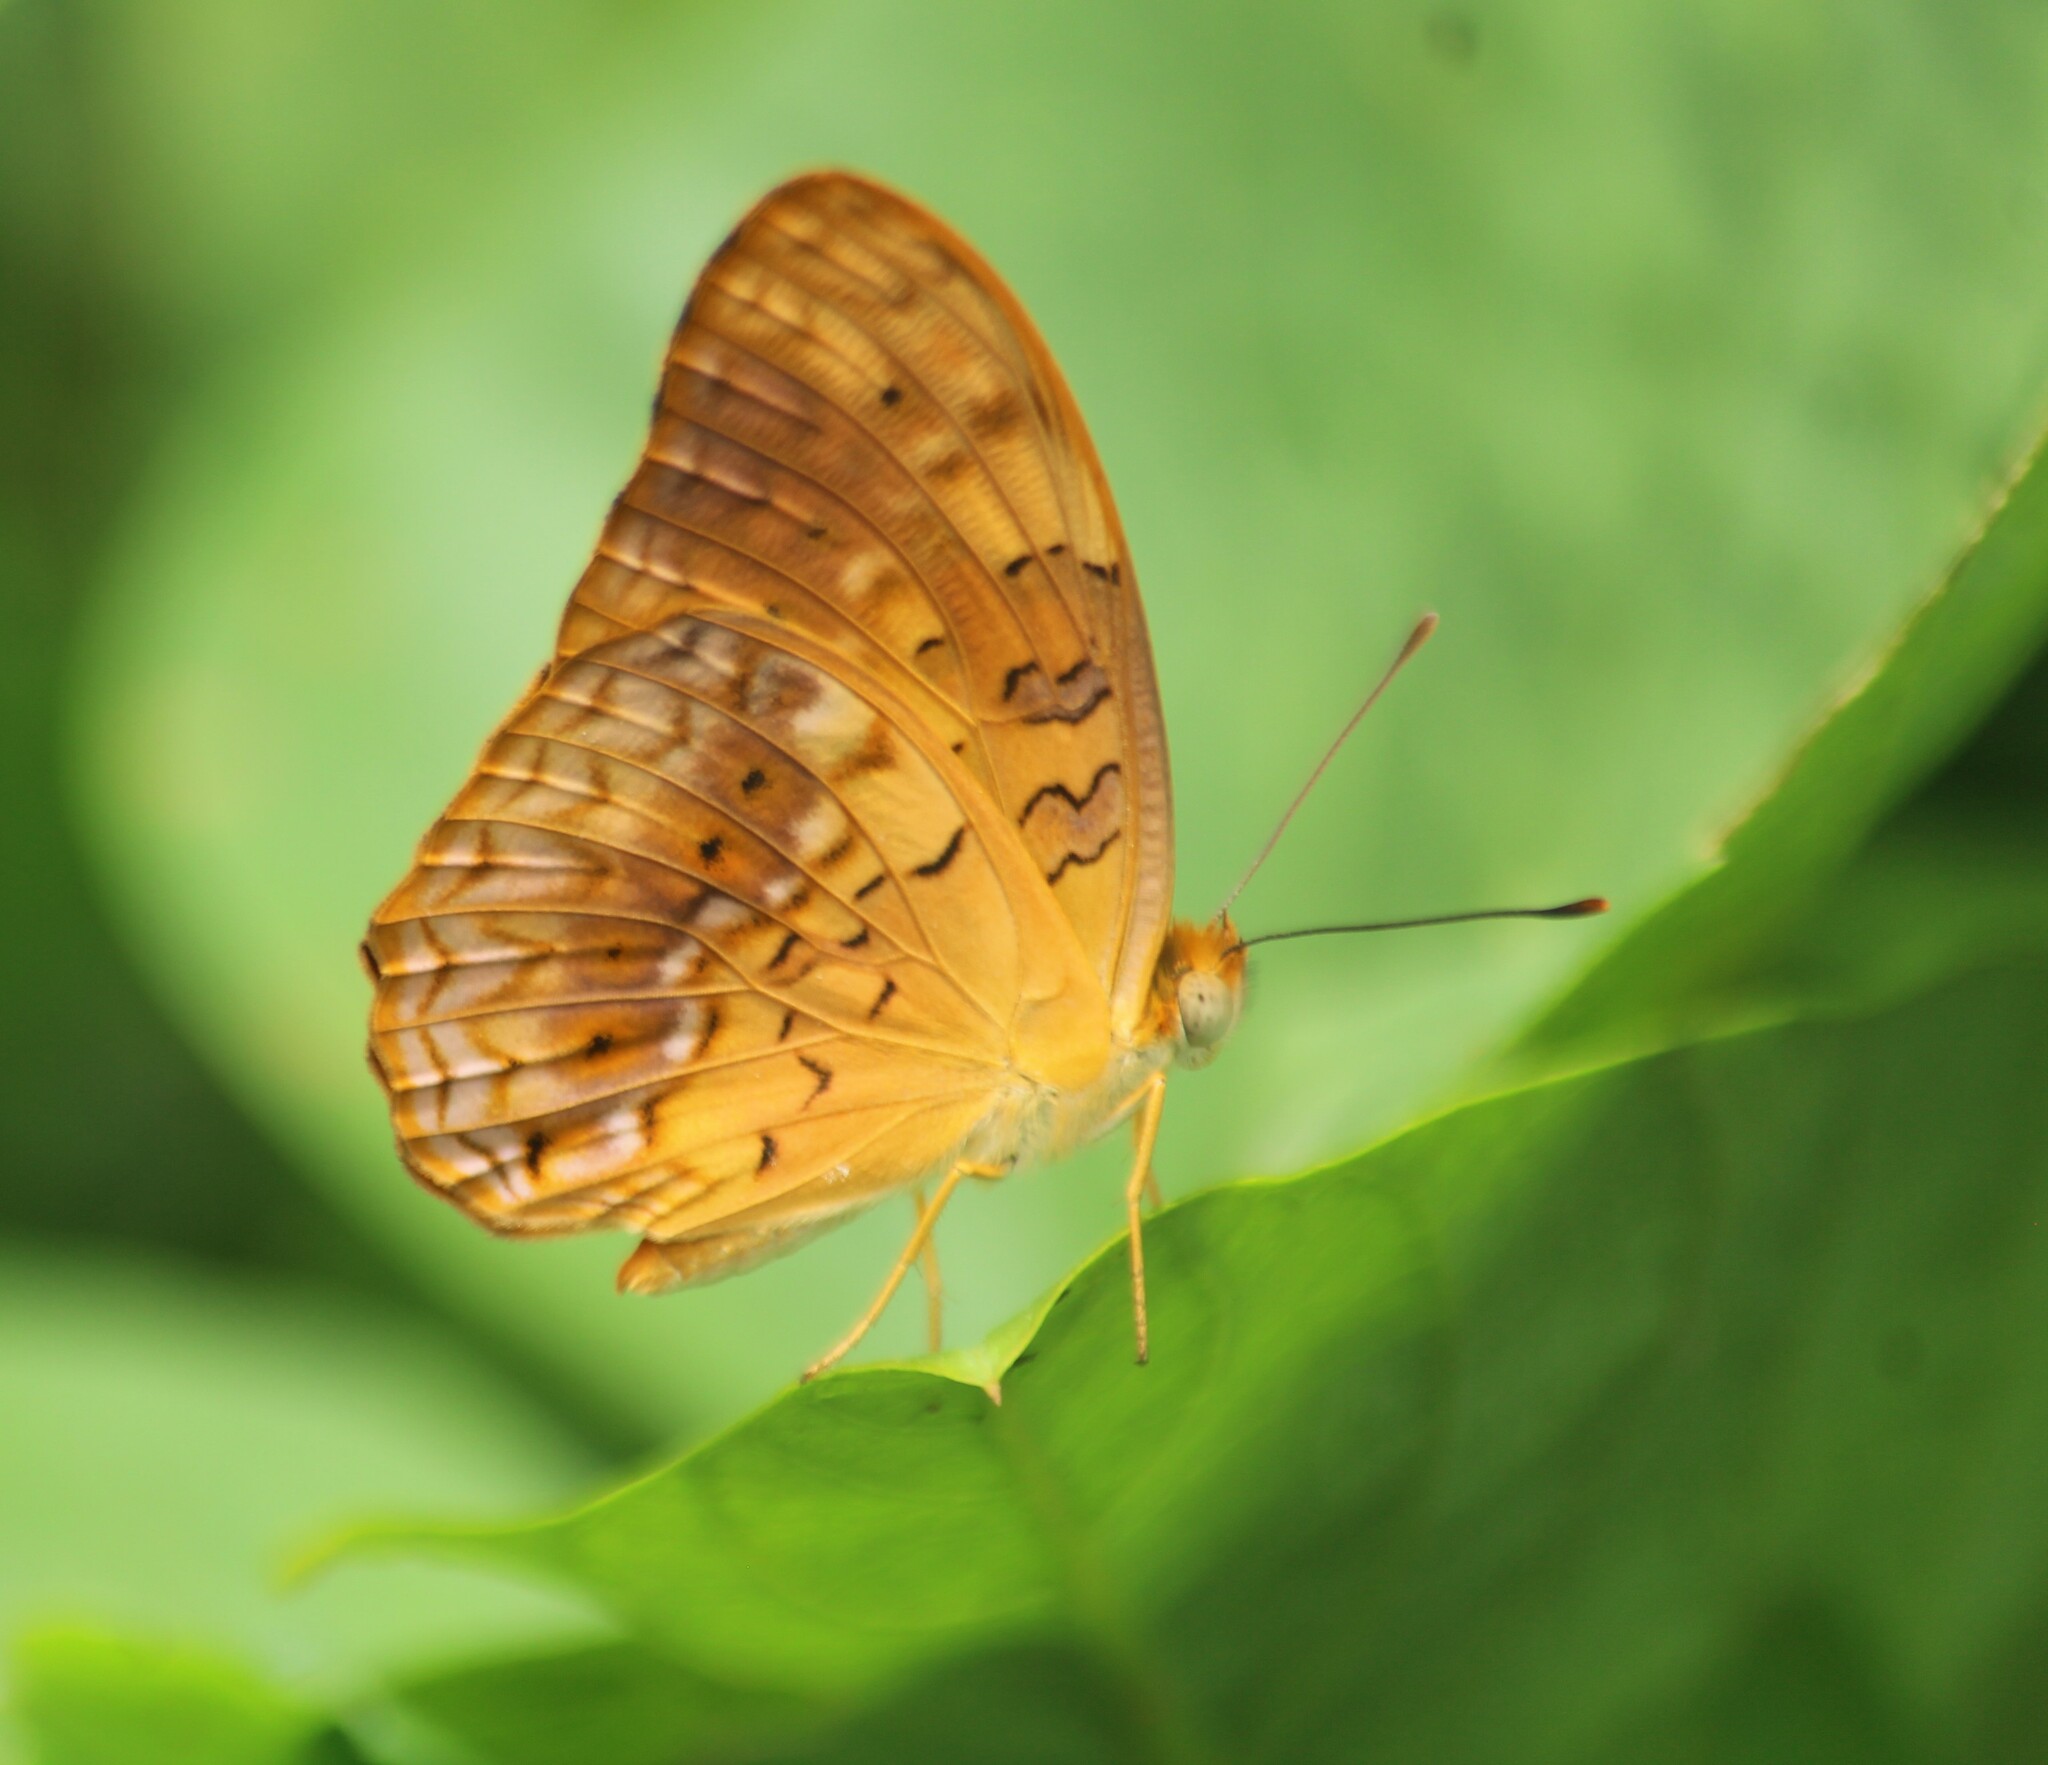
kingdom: Animalia
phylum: Arthropoda
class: Insecta
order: Lepidoptera
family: Nymphalidae
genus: Phalanta
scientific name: Phalanta phalantha
